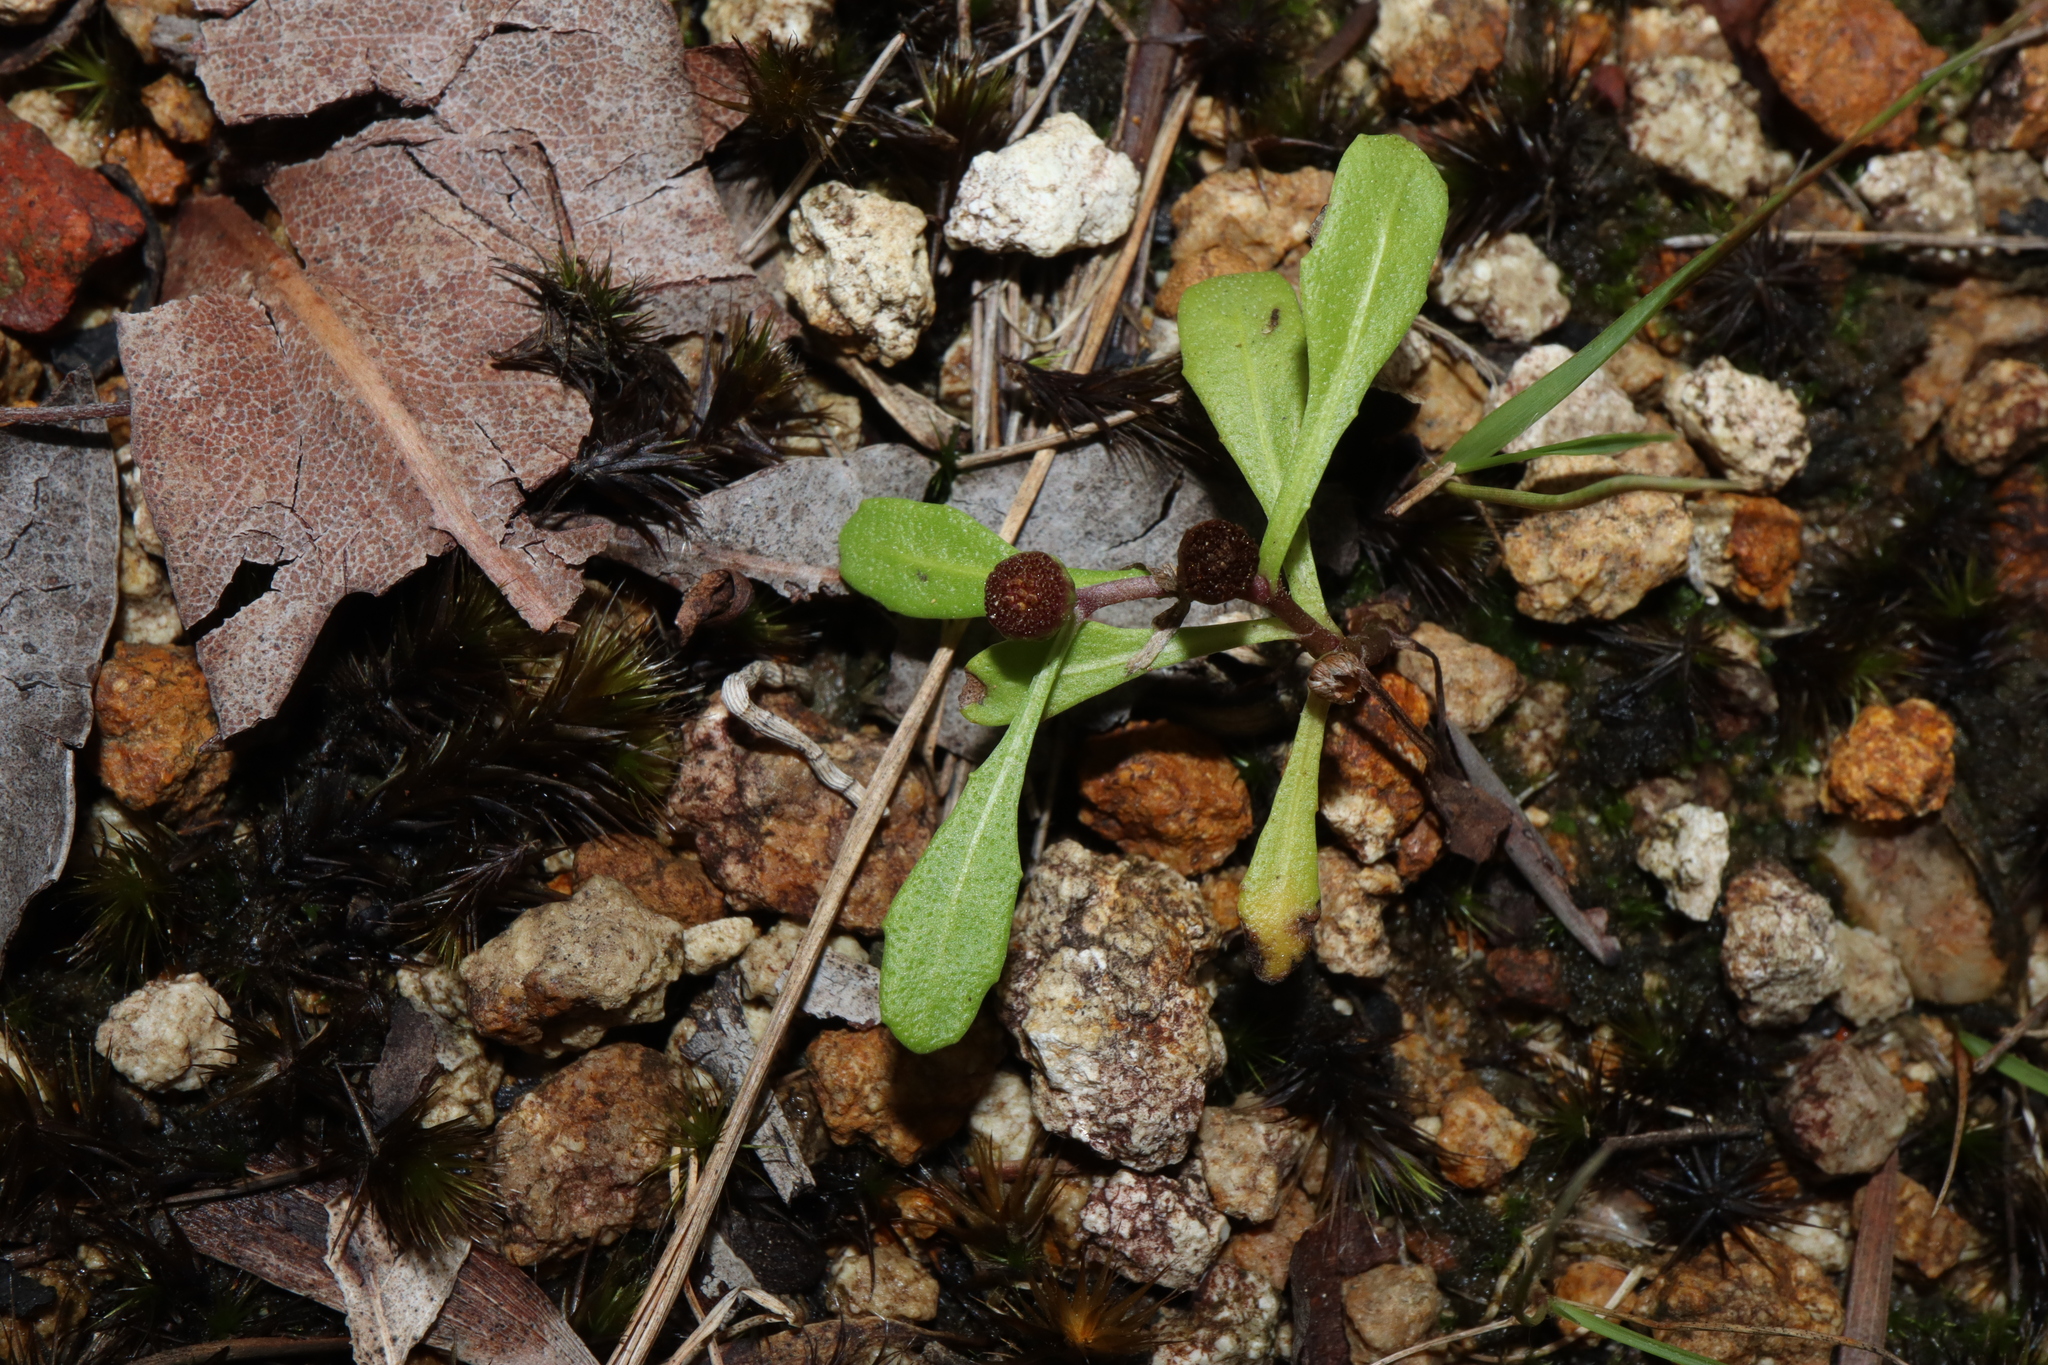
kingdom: Plantae
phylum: Tracheophyta
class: Magnoliopsida
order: Asterales
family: Asteraceae
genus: Sphaeromorphaea
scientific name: Sphaeromorphaea australis
